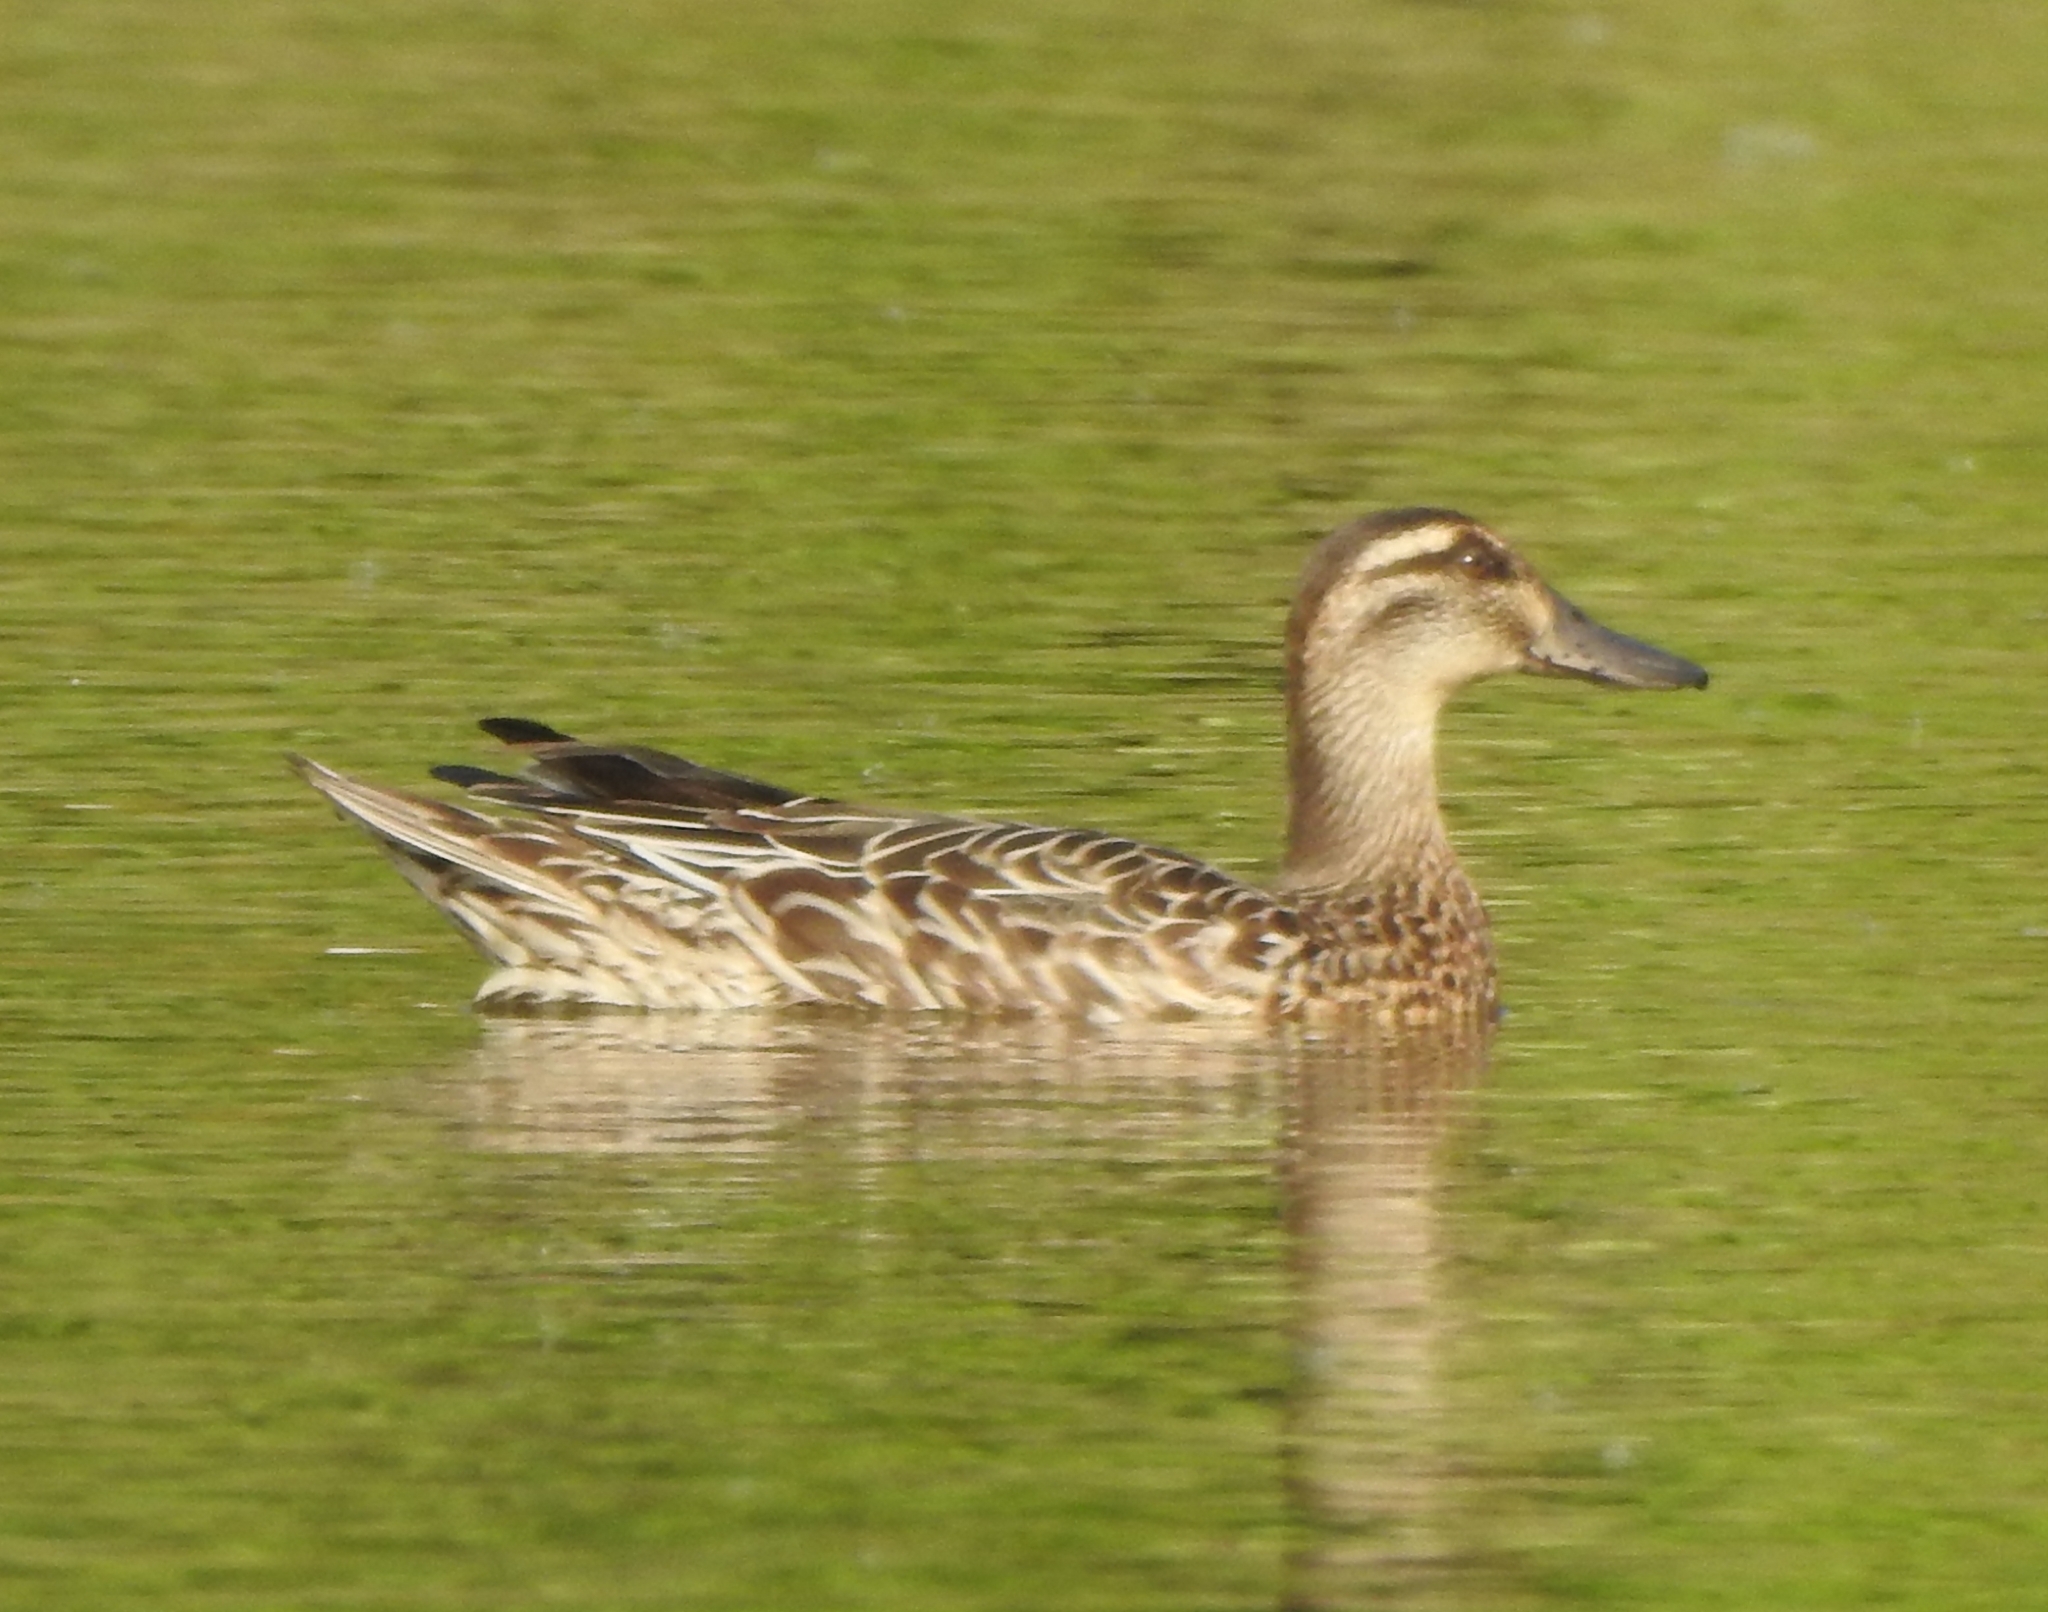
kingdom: Animalia
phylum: Chordata
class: Aves
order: Anseriformes
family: Anatidae
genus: Spatula
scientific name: Spatula querquedula
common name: Garganey
